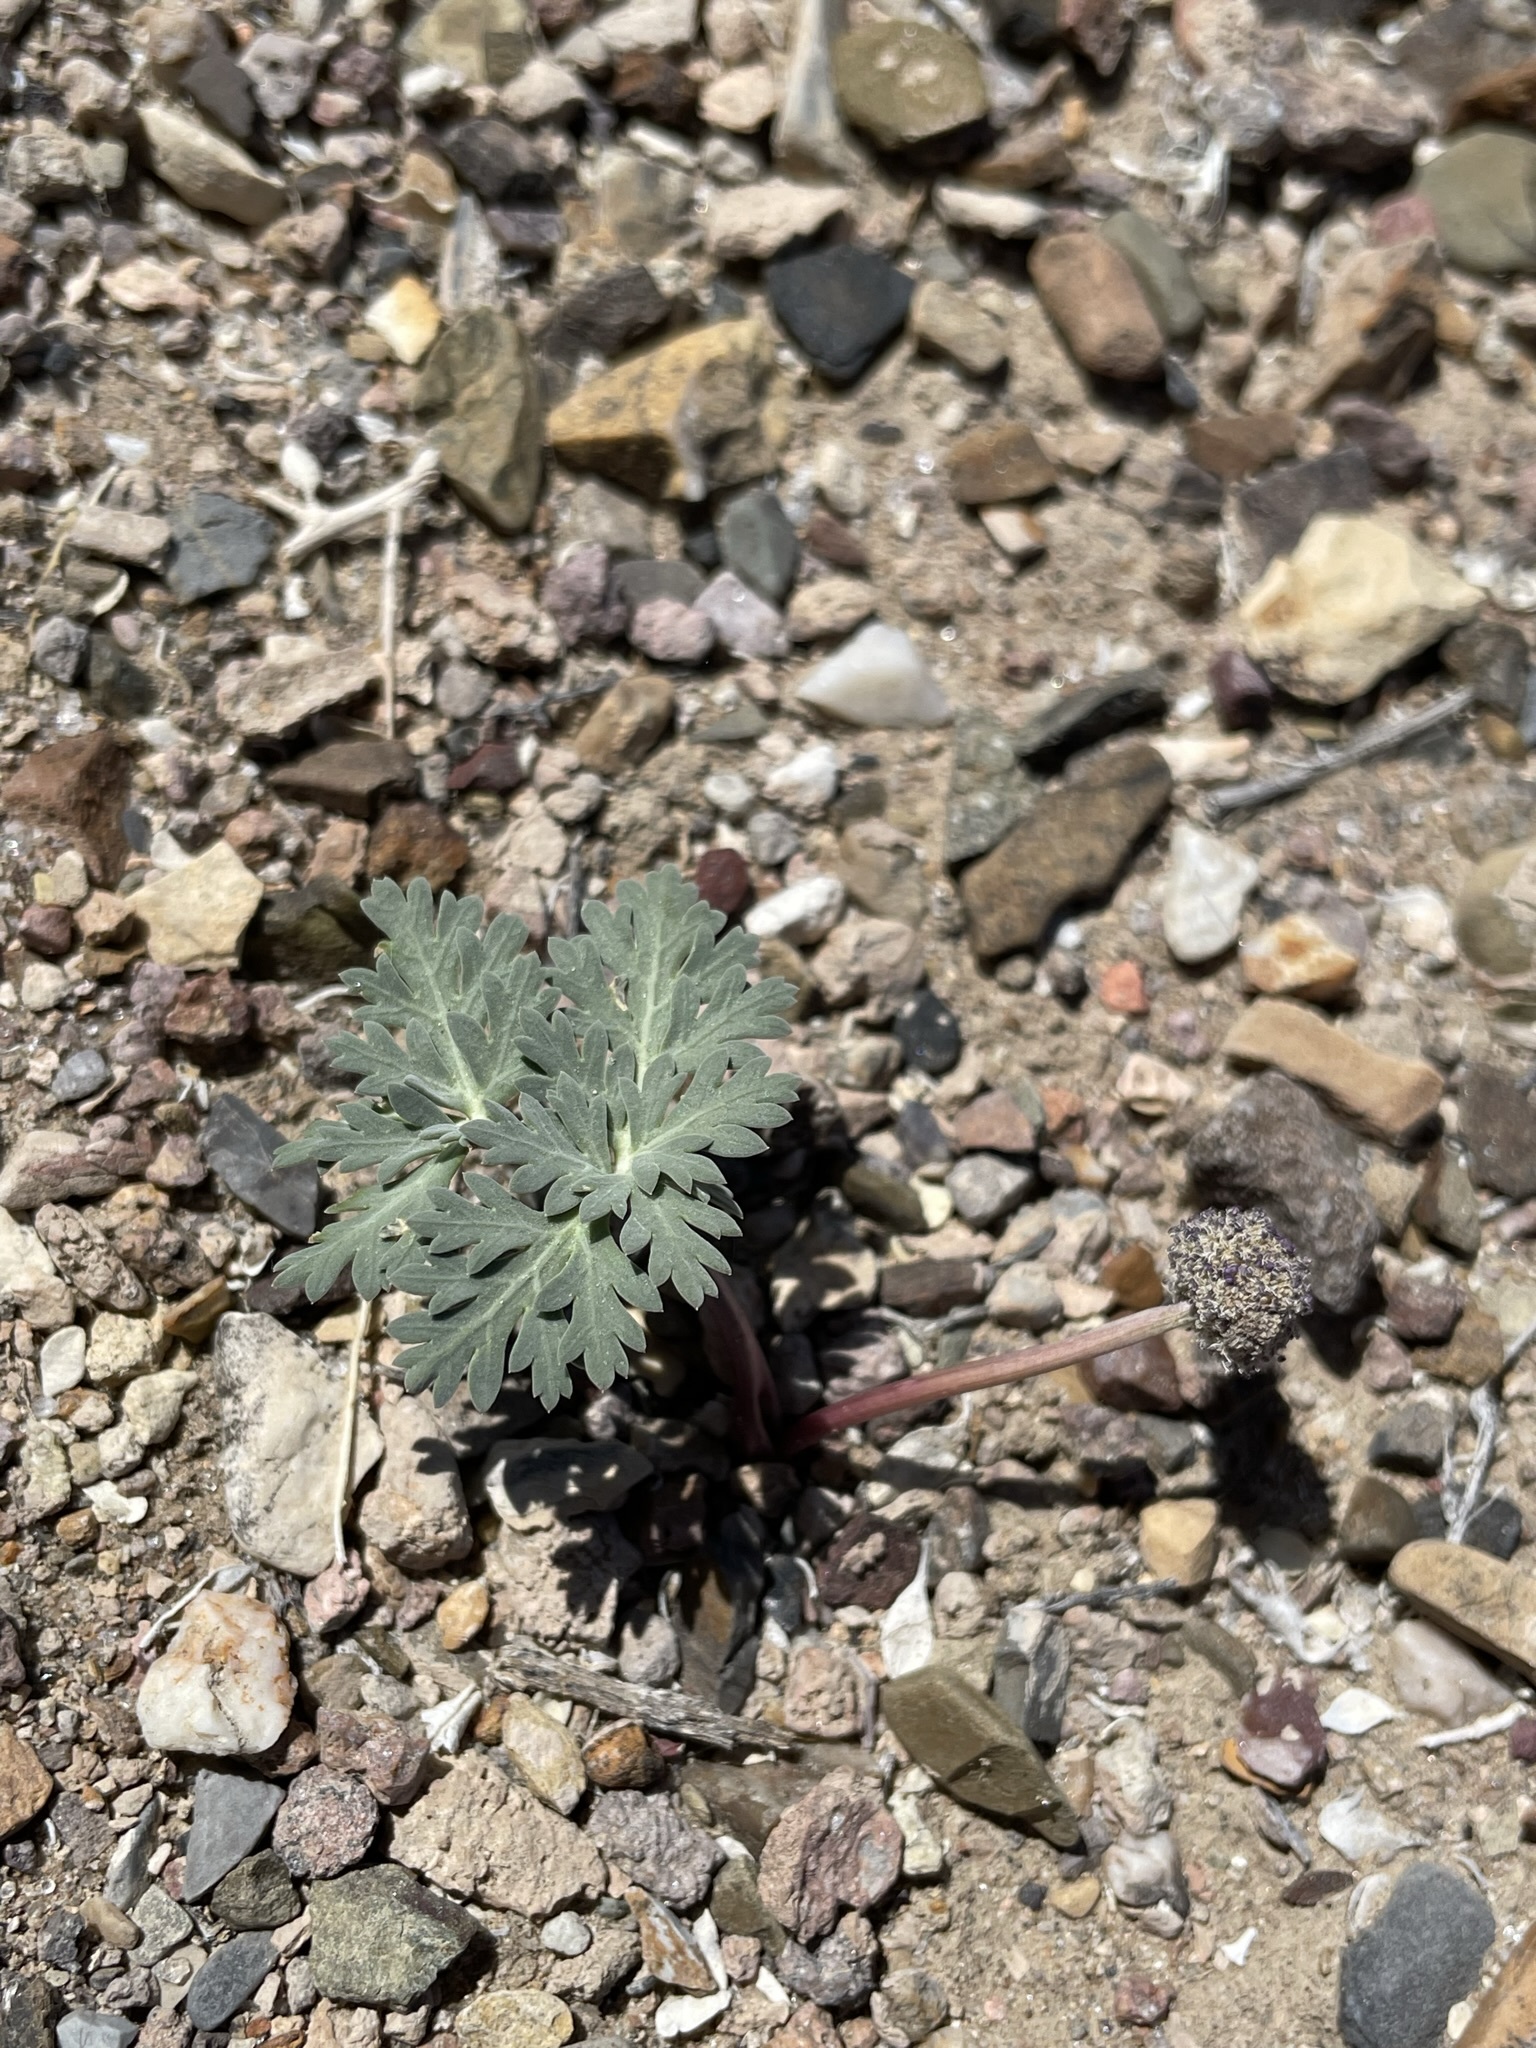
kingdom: Plantae
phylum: Tracheophyta
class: Magnoliopsida
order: Apiales
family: Apiaceae
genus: Cymopterus
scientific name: Cymopterus globosus
